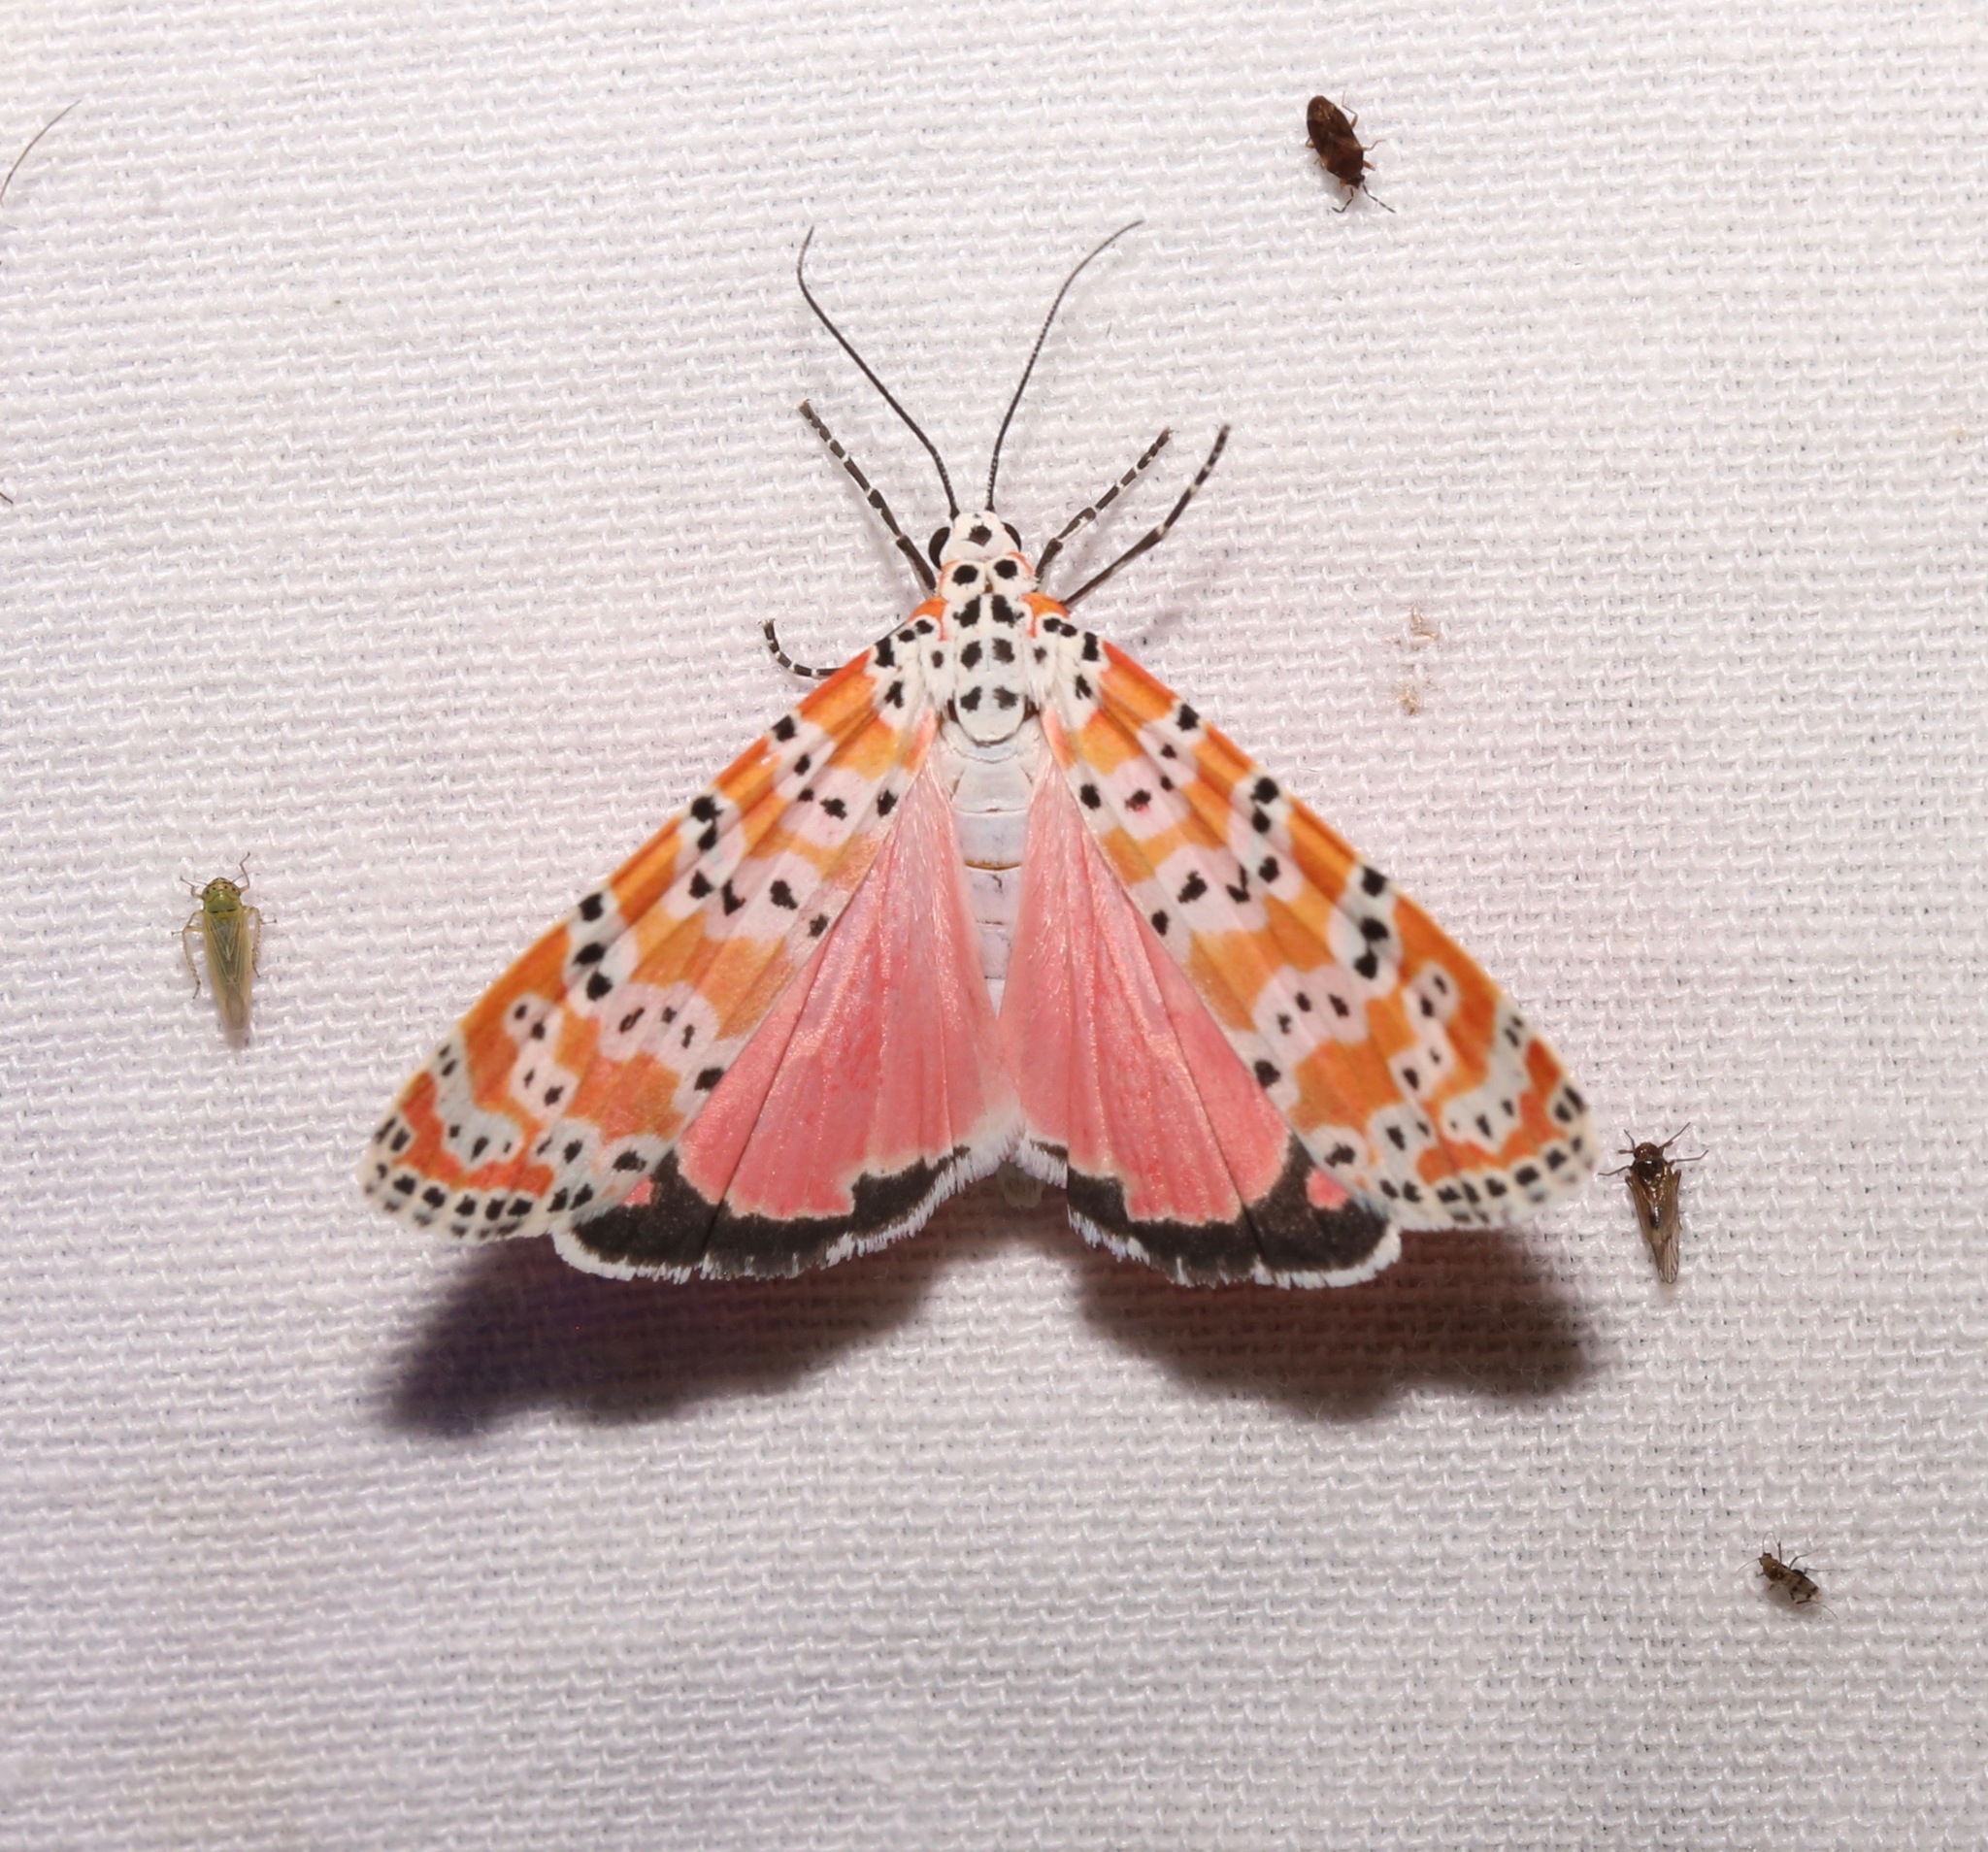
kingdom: Animalia
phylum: Arthropoda
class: Insecta
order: Lepidoptera
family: Erebidae
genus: Utetheisa
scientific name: Utetheisa ornatrix
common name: Beautiful utetheisa
